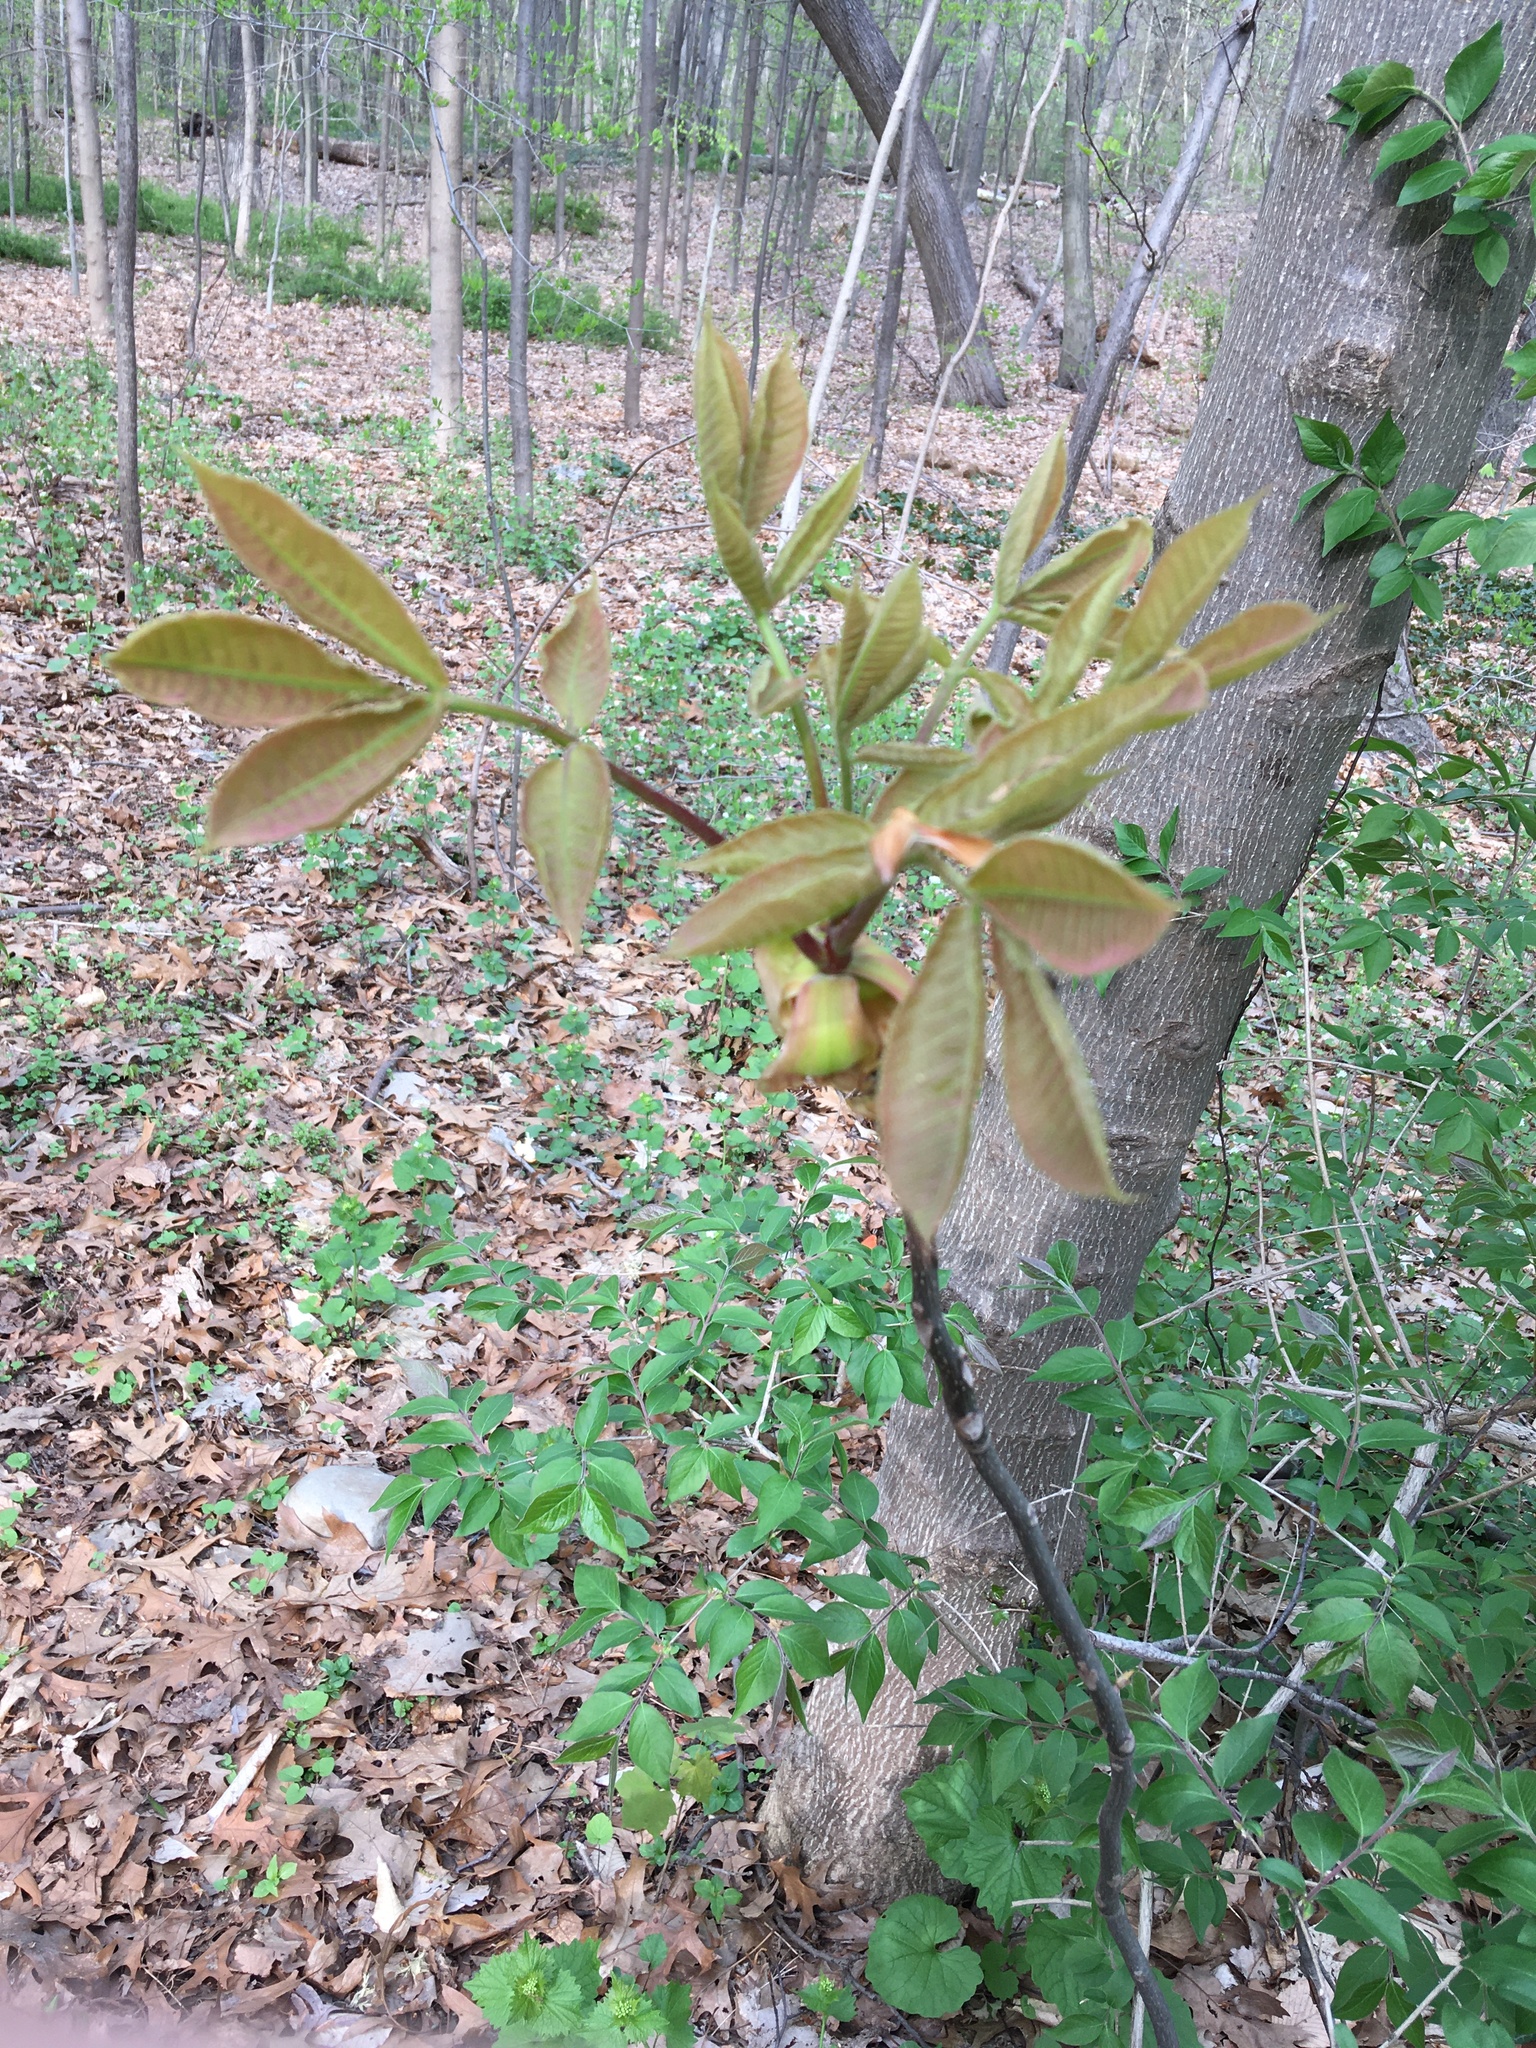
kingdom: Plantae
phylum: Tracheophyta
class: Magnoliopsida
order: Fagales
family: Juglandaceae
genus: Carya
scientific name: Carya ovata
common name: Shagbark hickory
